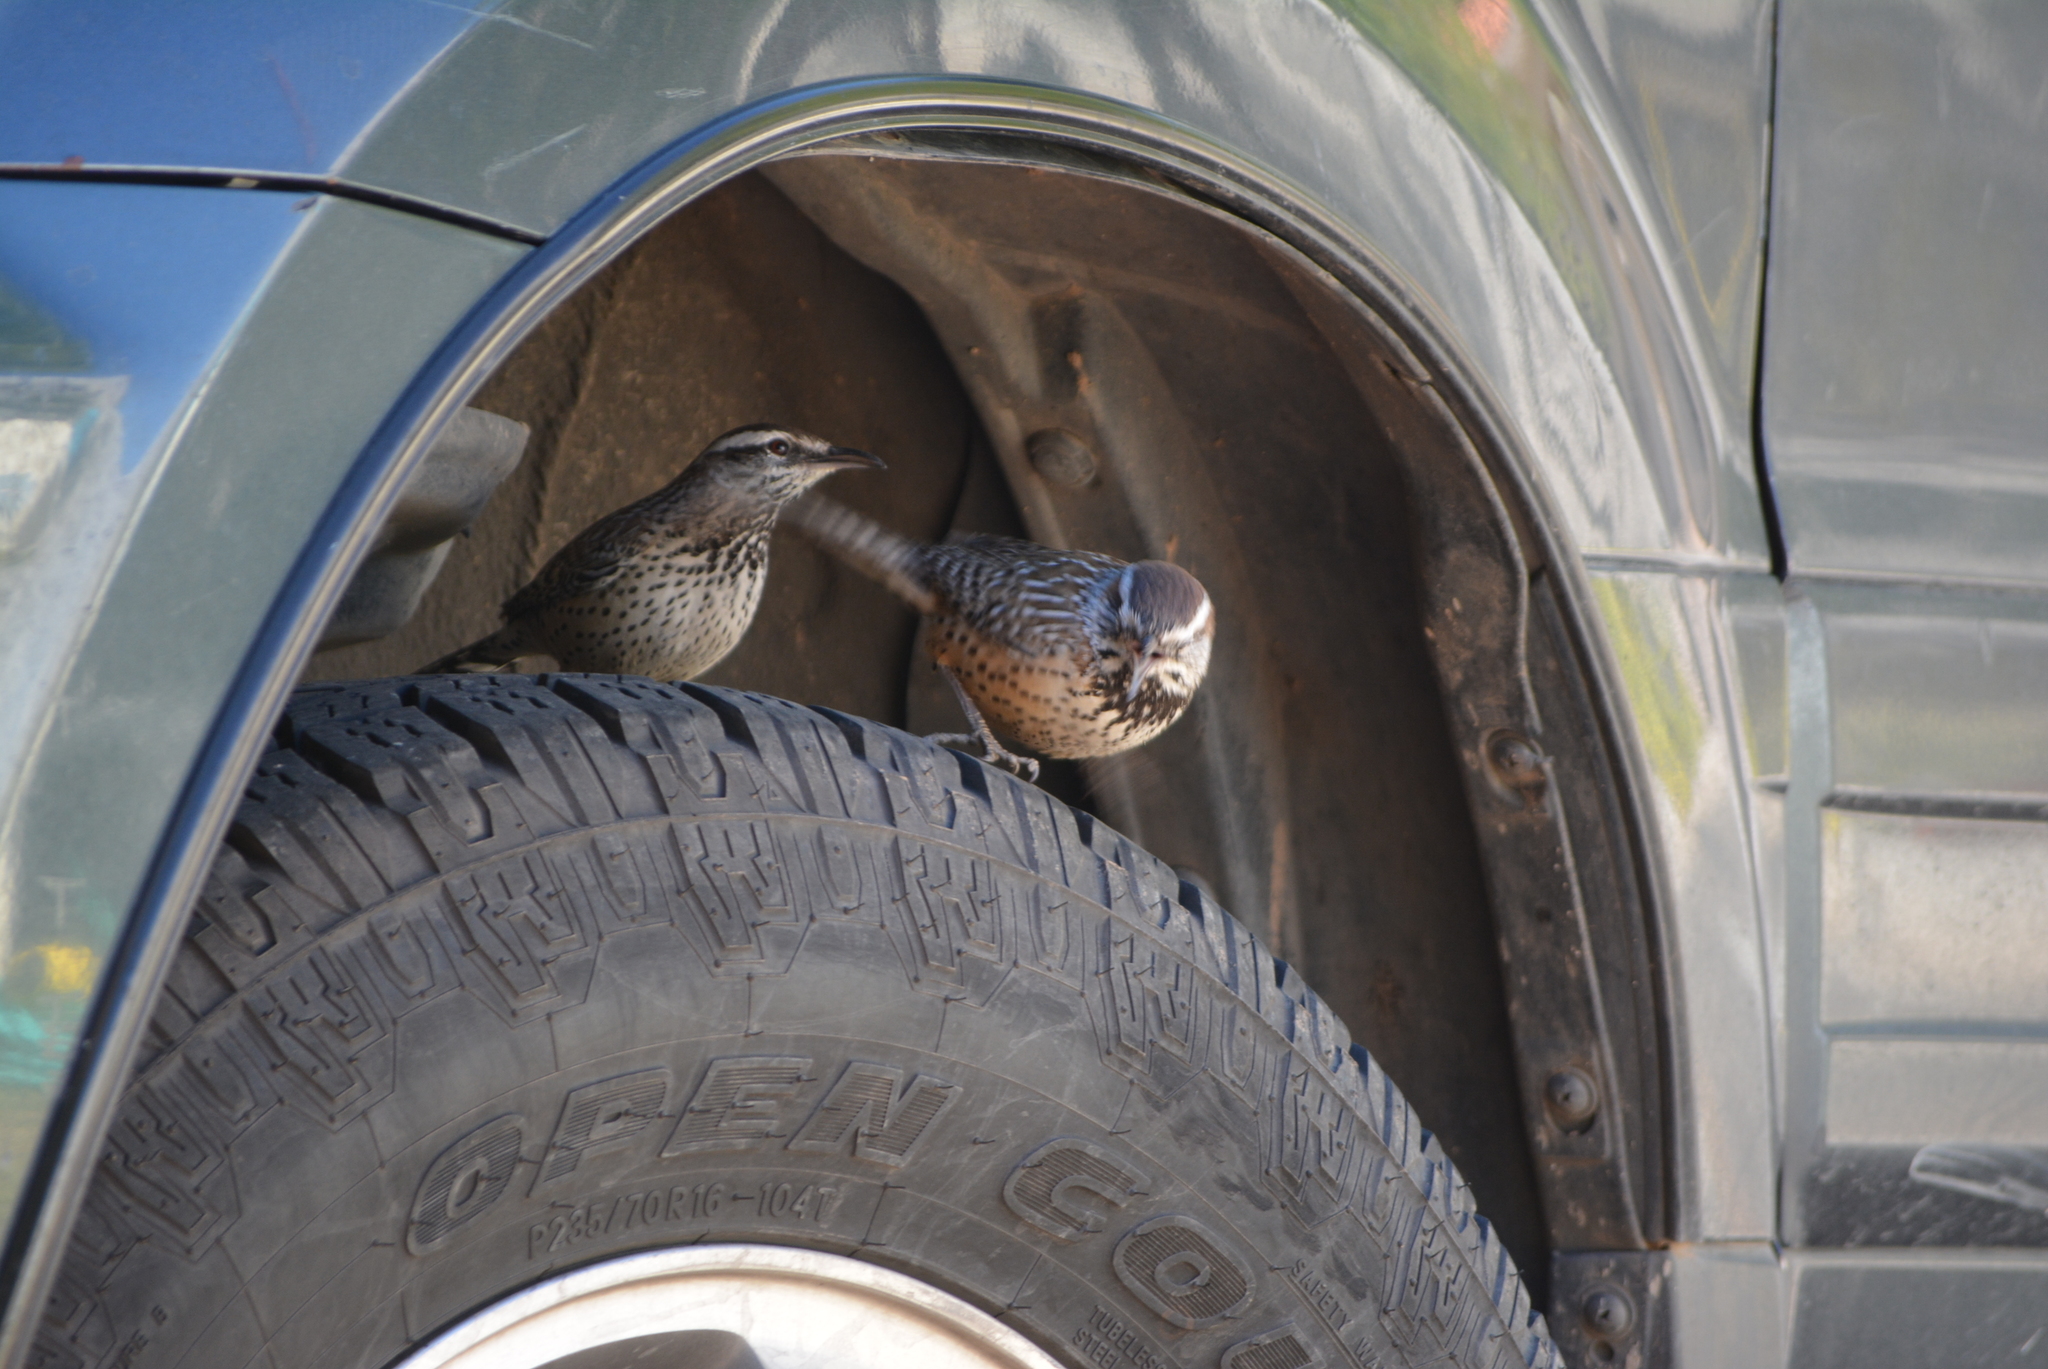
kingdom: Animalia
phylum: Chordata
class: Aves
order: Passeriformes
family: Troglodytidae
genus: Campylorhynchus
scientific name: Campylorhynchus brunneicapillus
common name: Cactus wren
